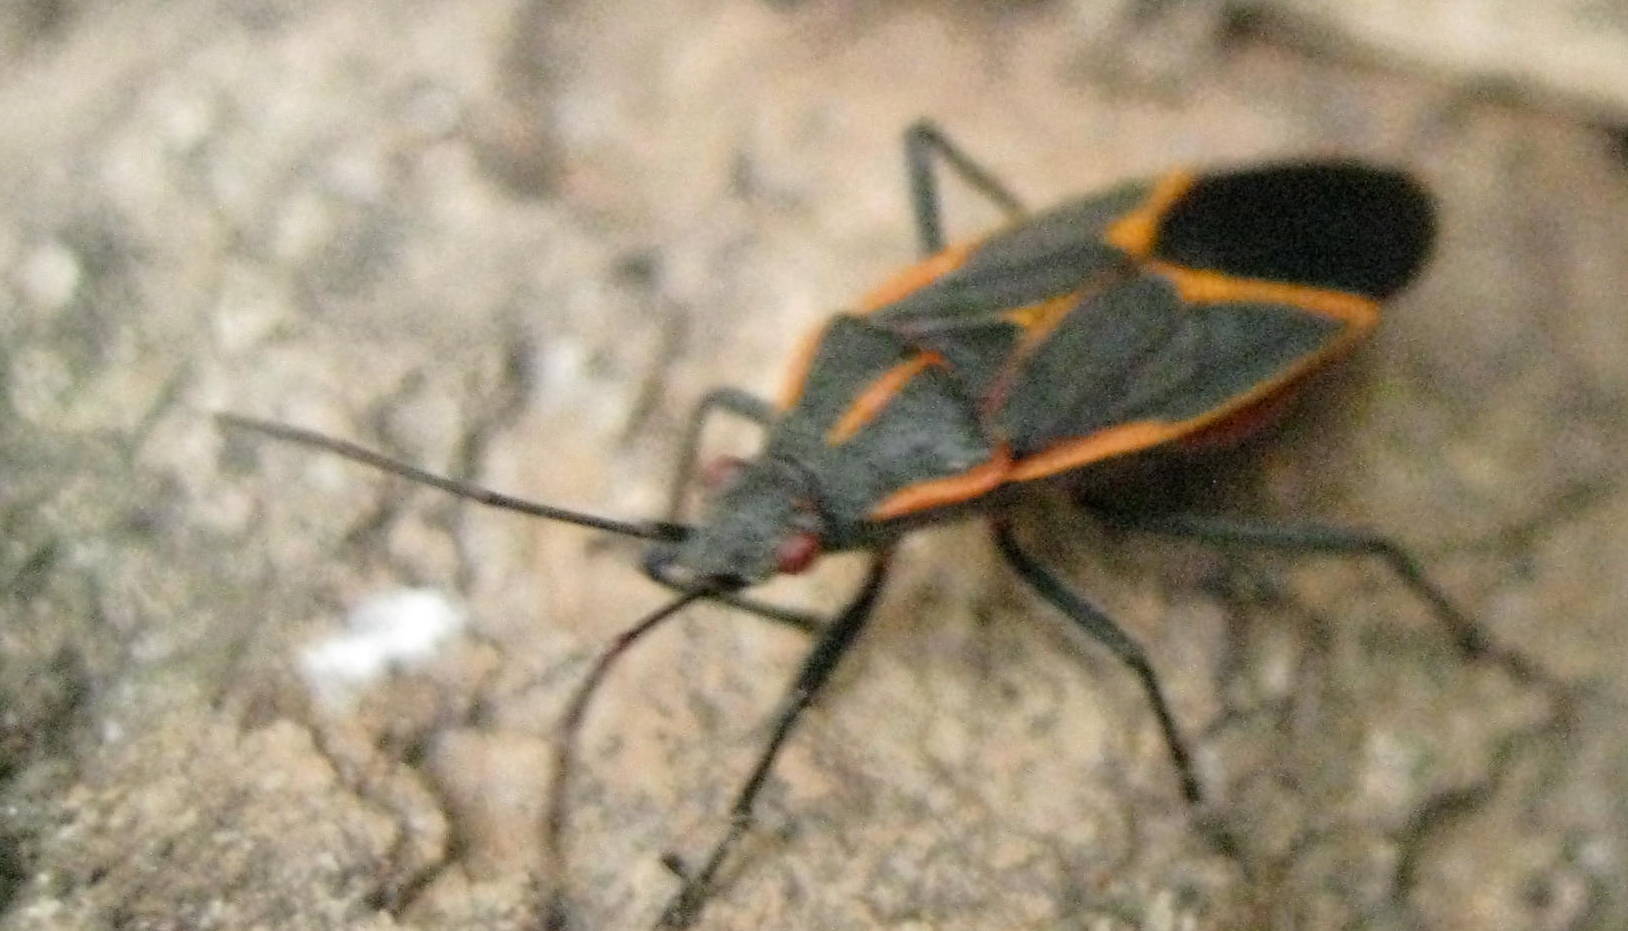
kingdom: Animalia
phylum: Arthropoda
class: Insecta
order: Hemiptera
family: Rhopalidae
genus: Boisea
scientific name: Boisea trivittata
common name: Boxelder bug
